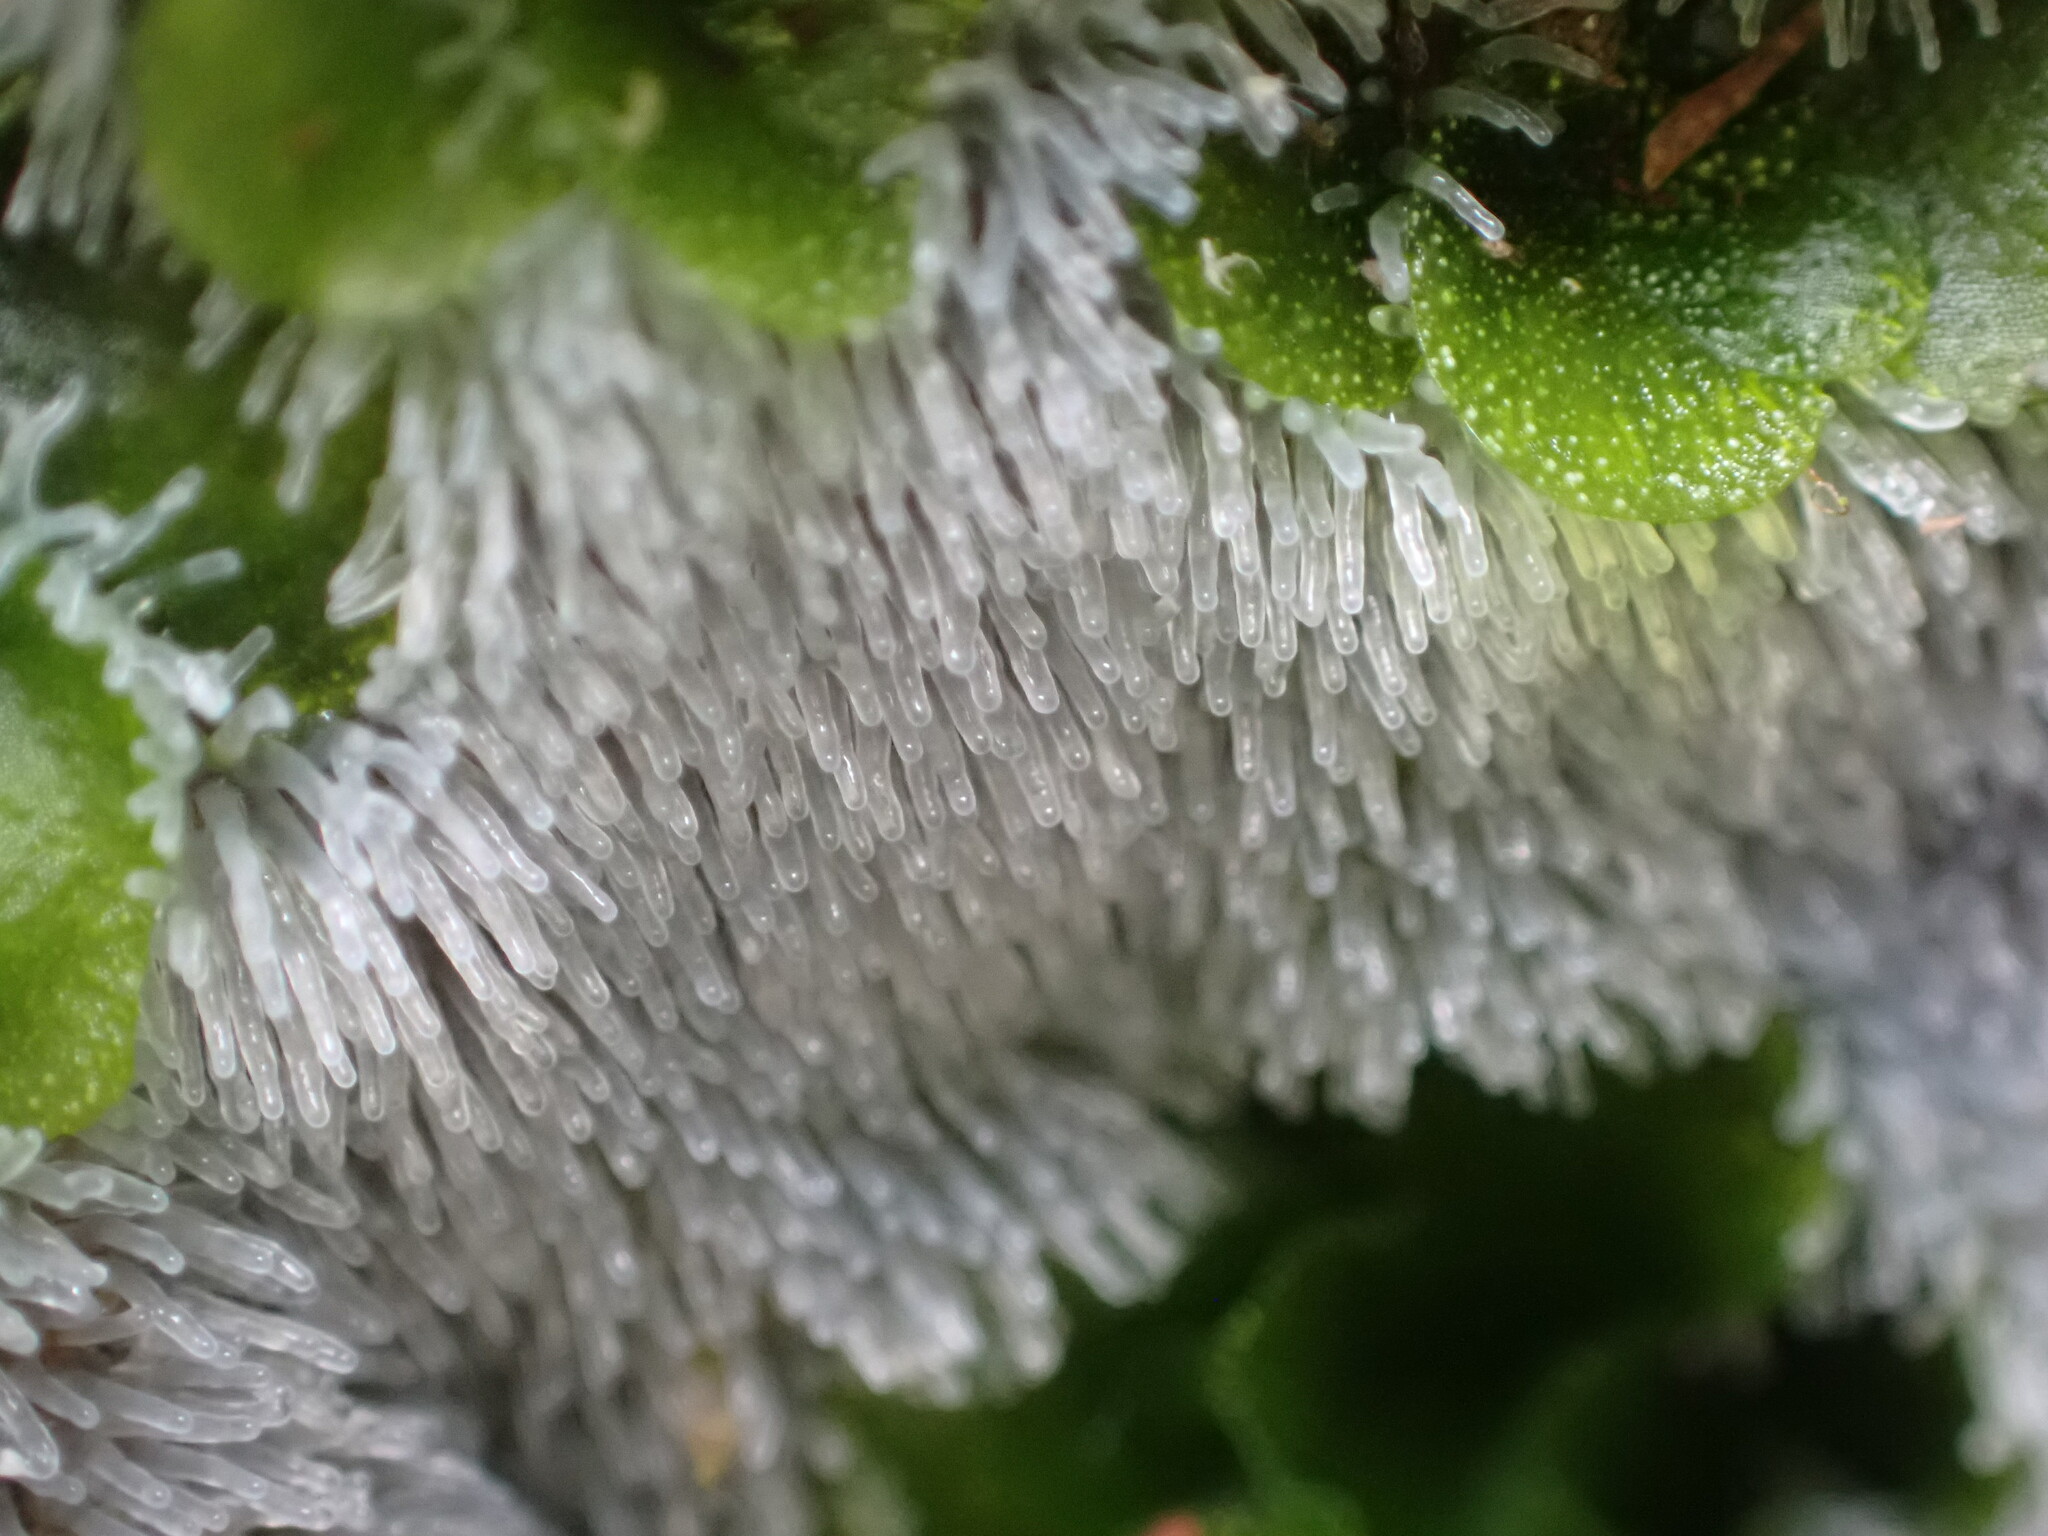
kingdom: Protozoa
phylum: Mycetozoa
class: Protosteliomycetes
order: Ceratiomyxales
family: Ceratiomyxaceae
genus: Ceratiomyxa
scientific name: Ceratiomyxa fruticulosa
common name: Honeycomb coral slime mold
